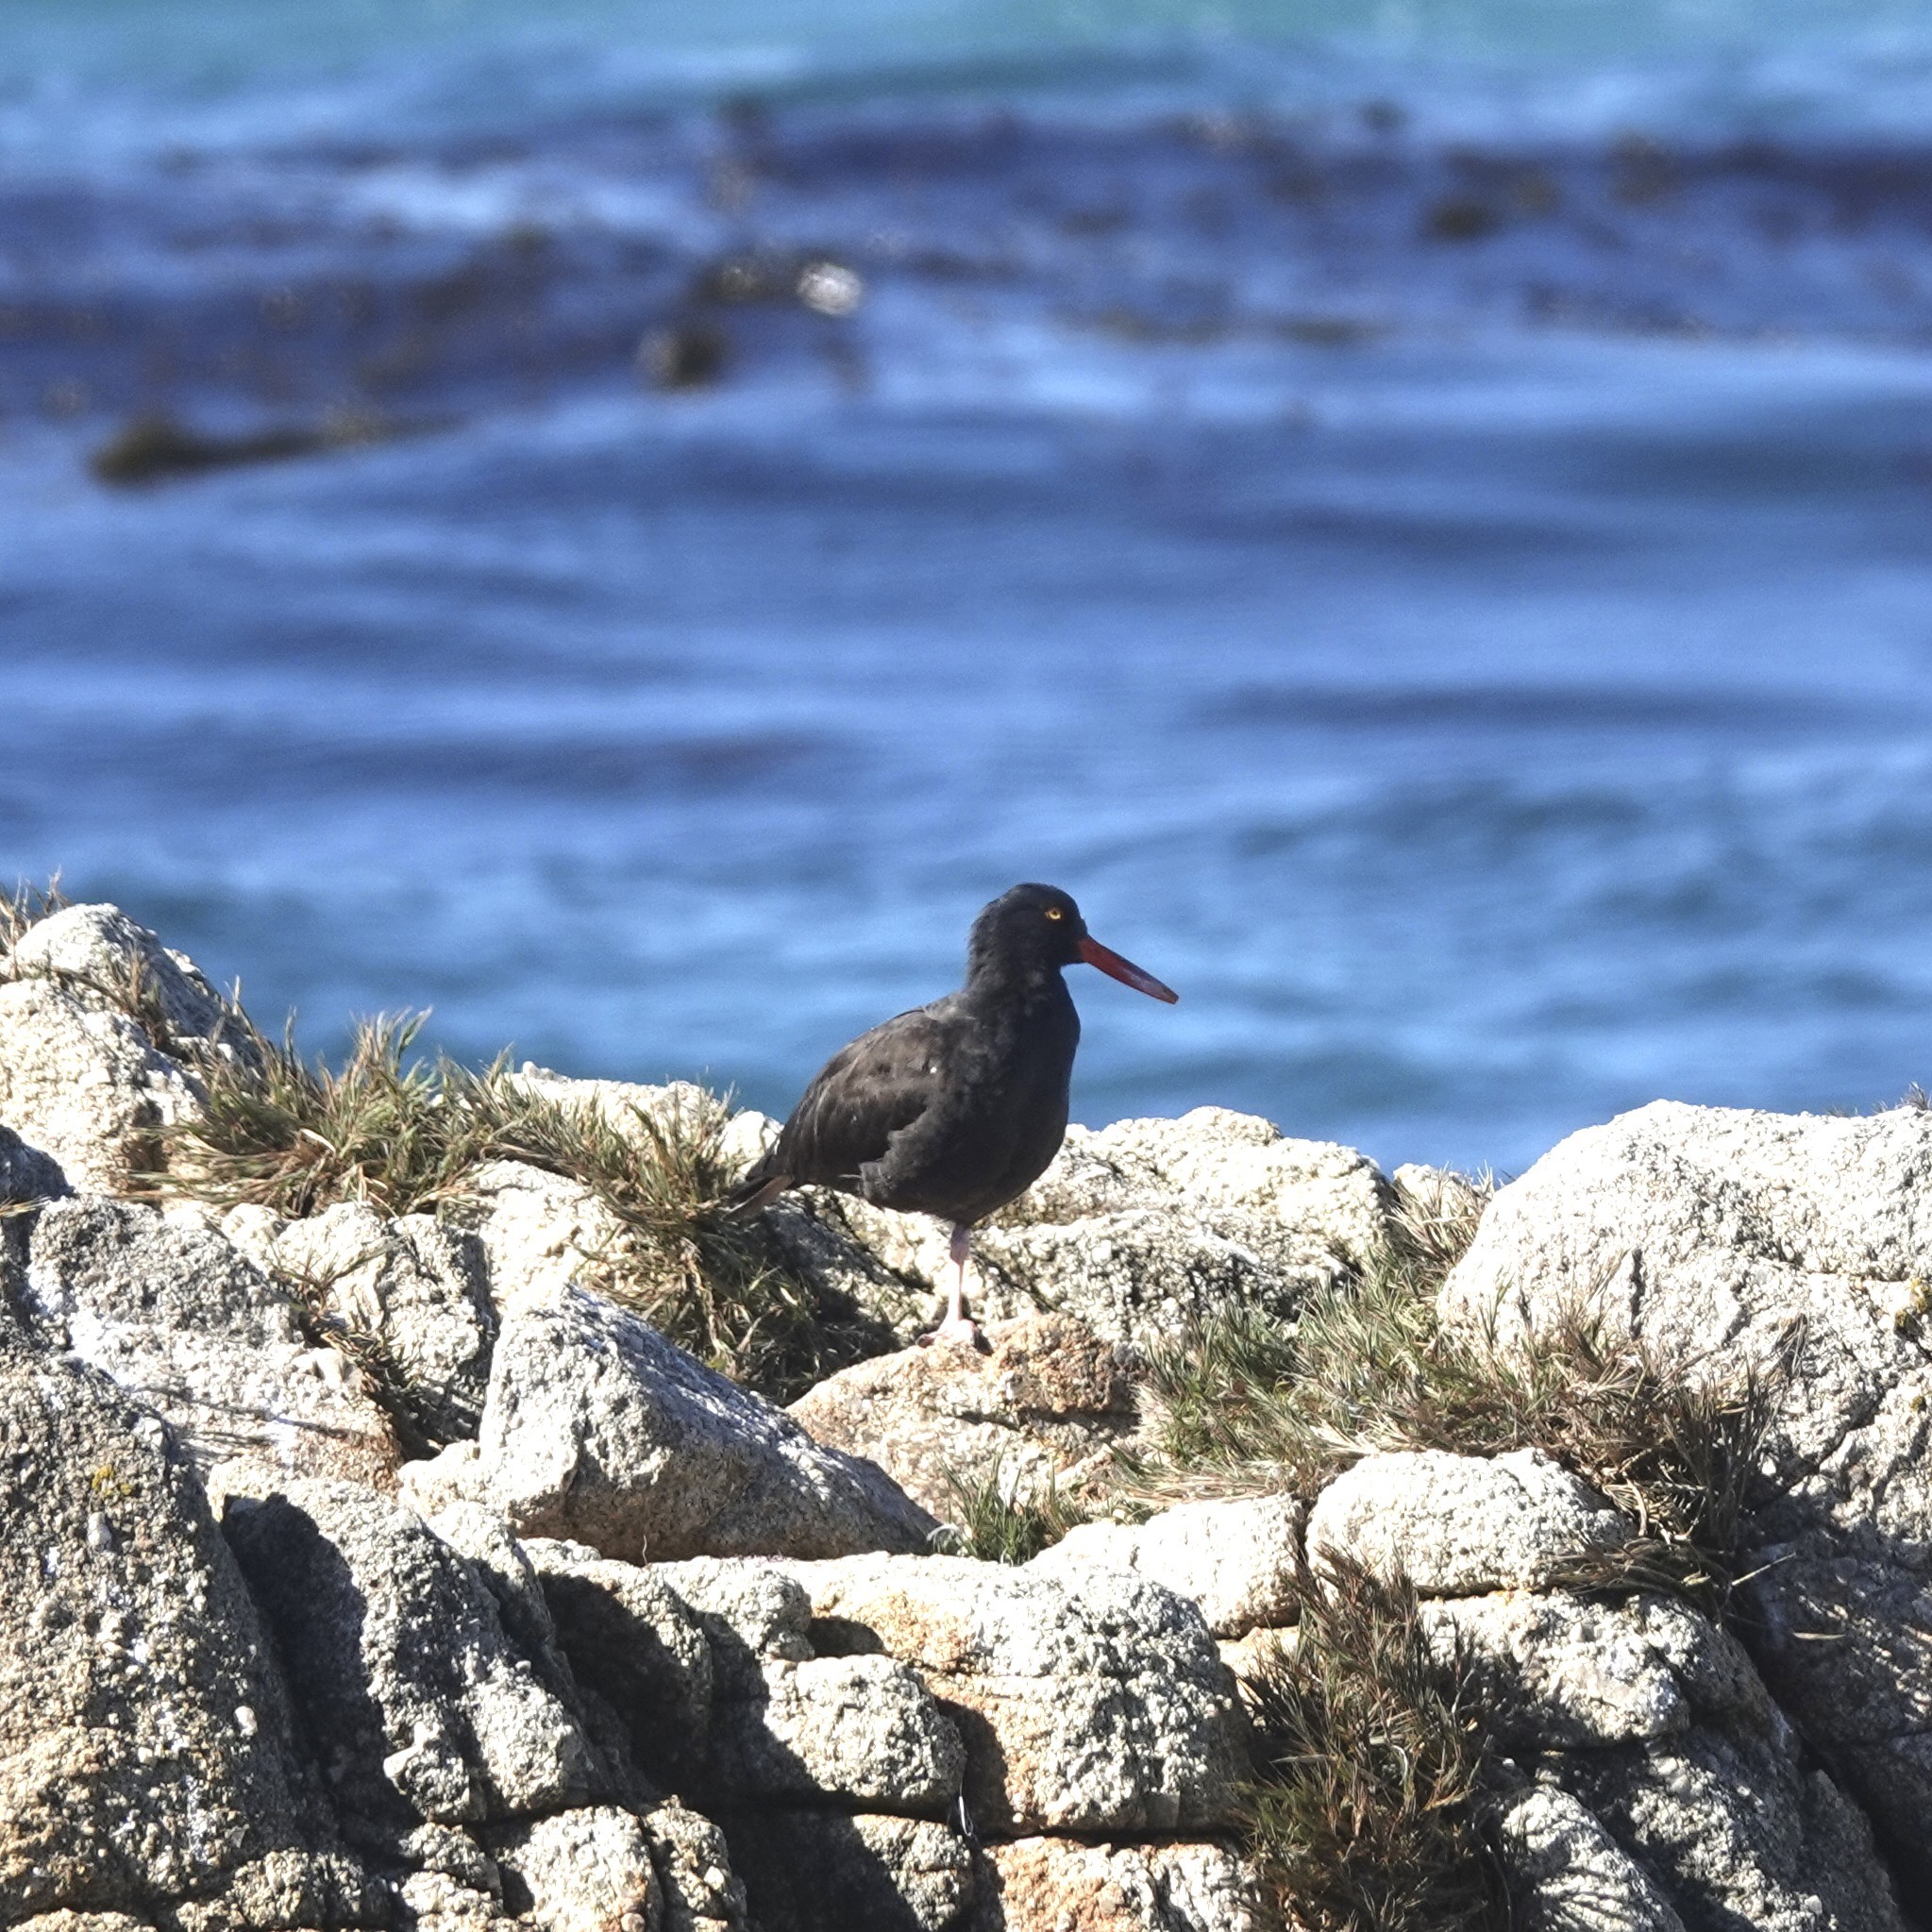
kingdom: Animalia
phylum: Chordata
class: Aves
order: Charadriiformes
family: Haematopodidae
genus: Haematopus
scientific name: Haematopus bachmani
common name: Black oystercatcher
